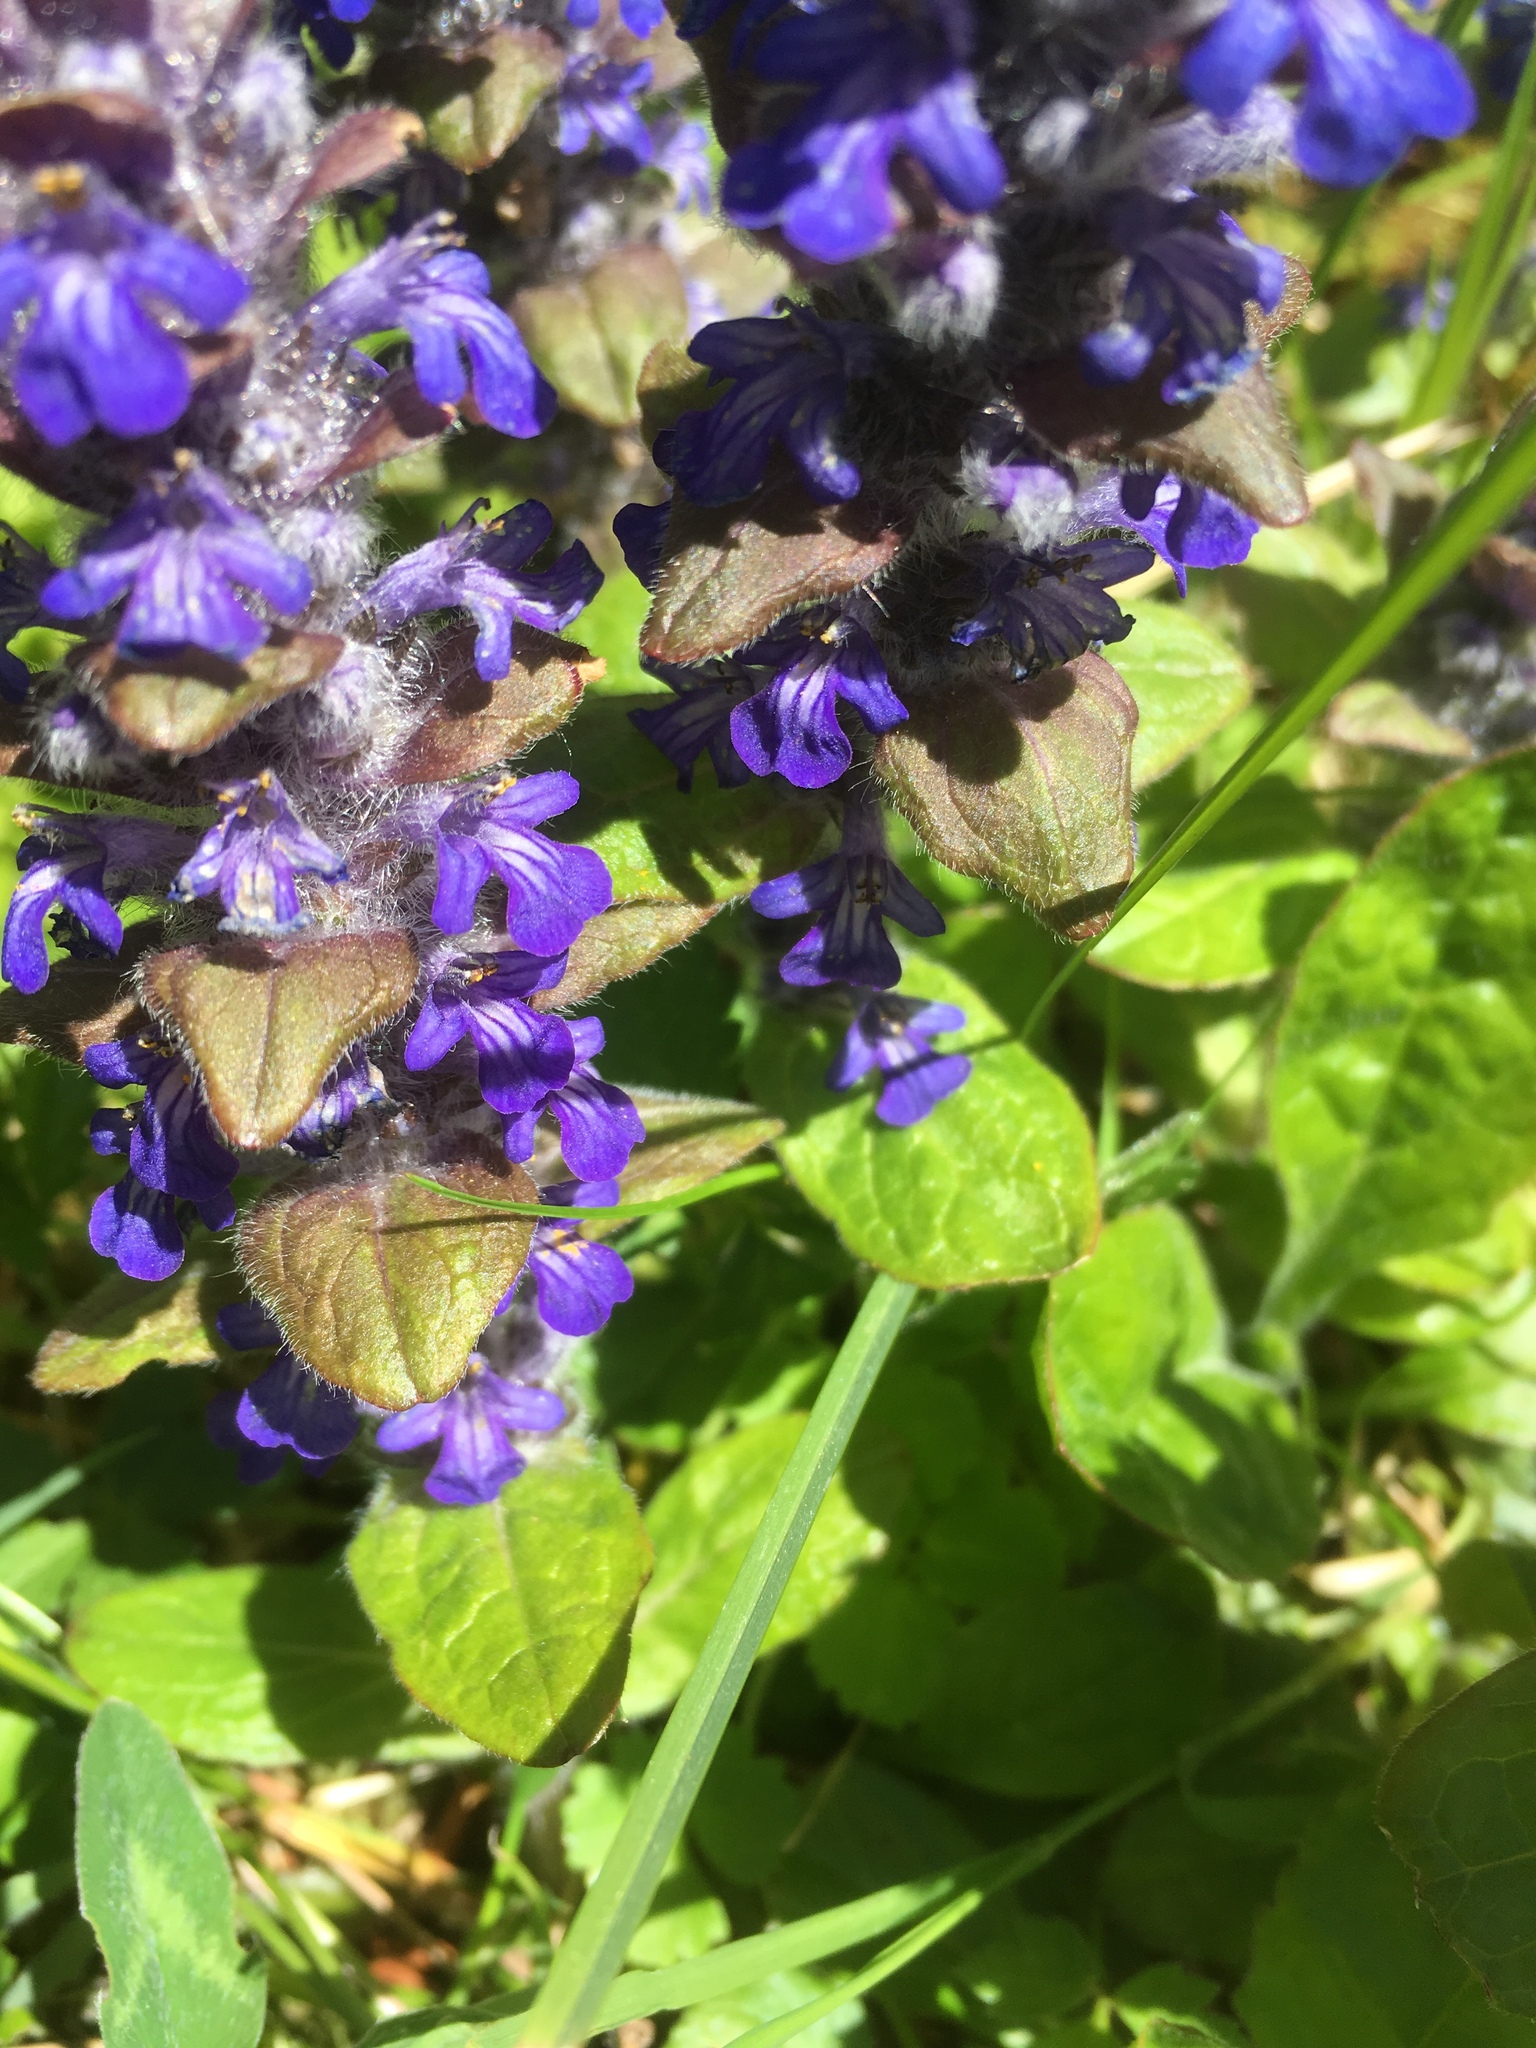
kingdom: Plantae
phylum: Tracheophyta
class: Magnoliopsida
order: Lamiales
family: Lamiaceae
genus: Ajuga
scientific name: Ajuga reptans
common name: Bugle
